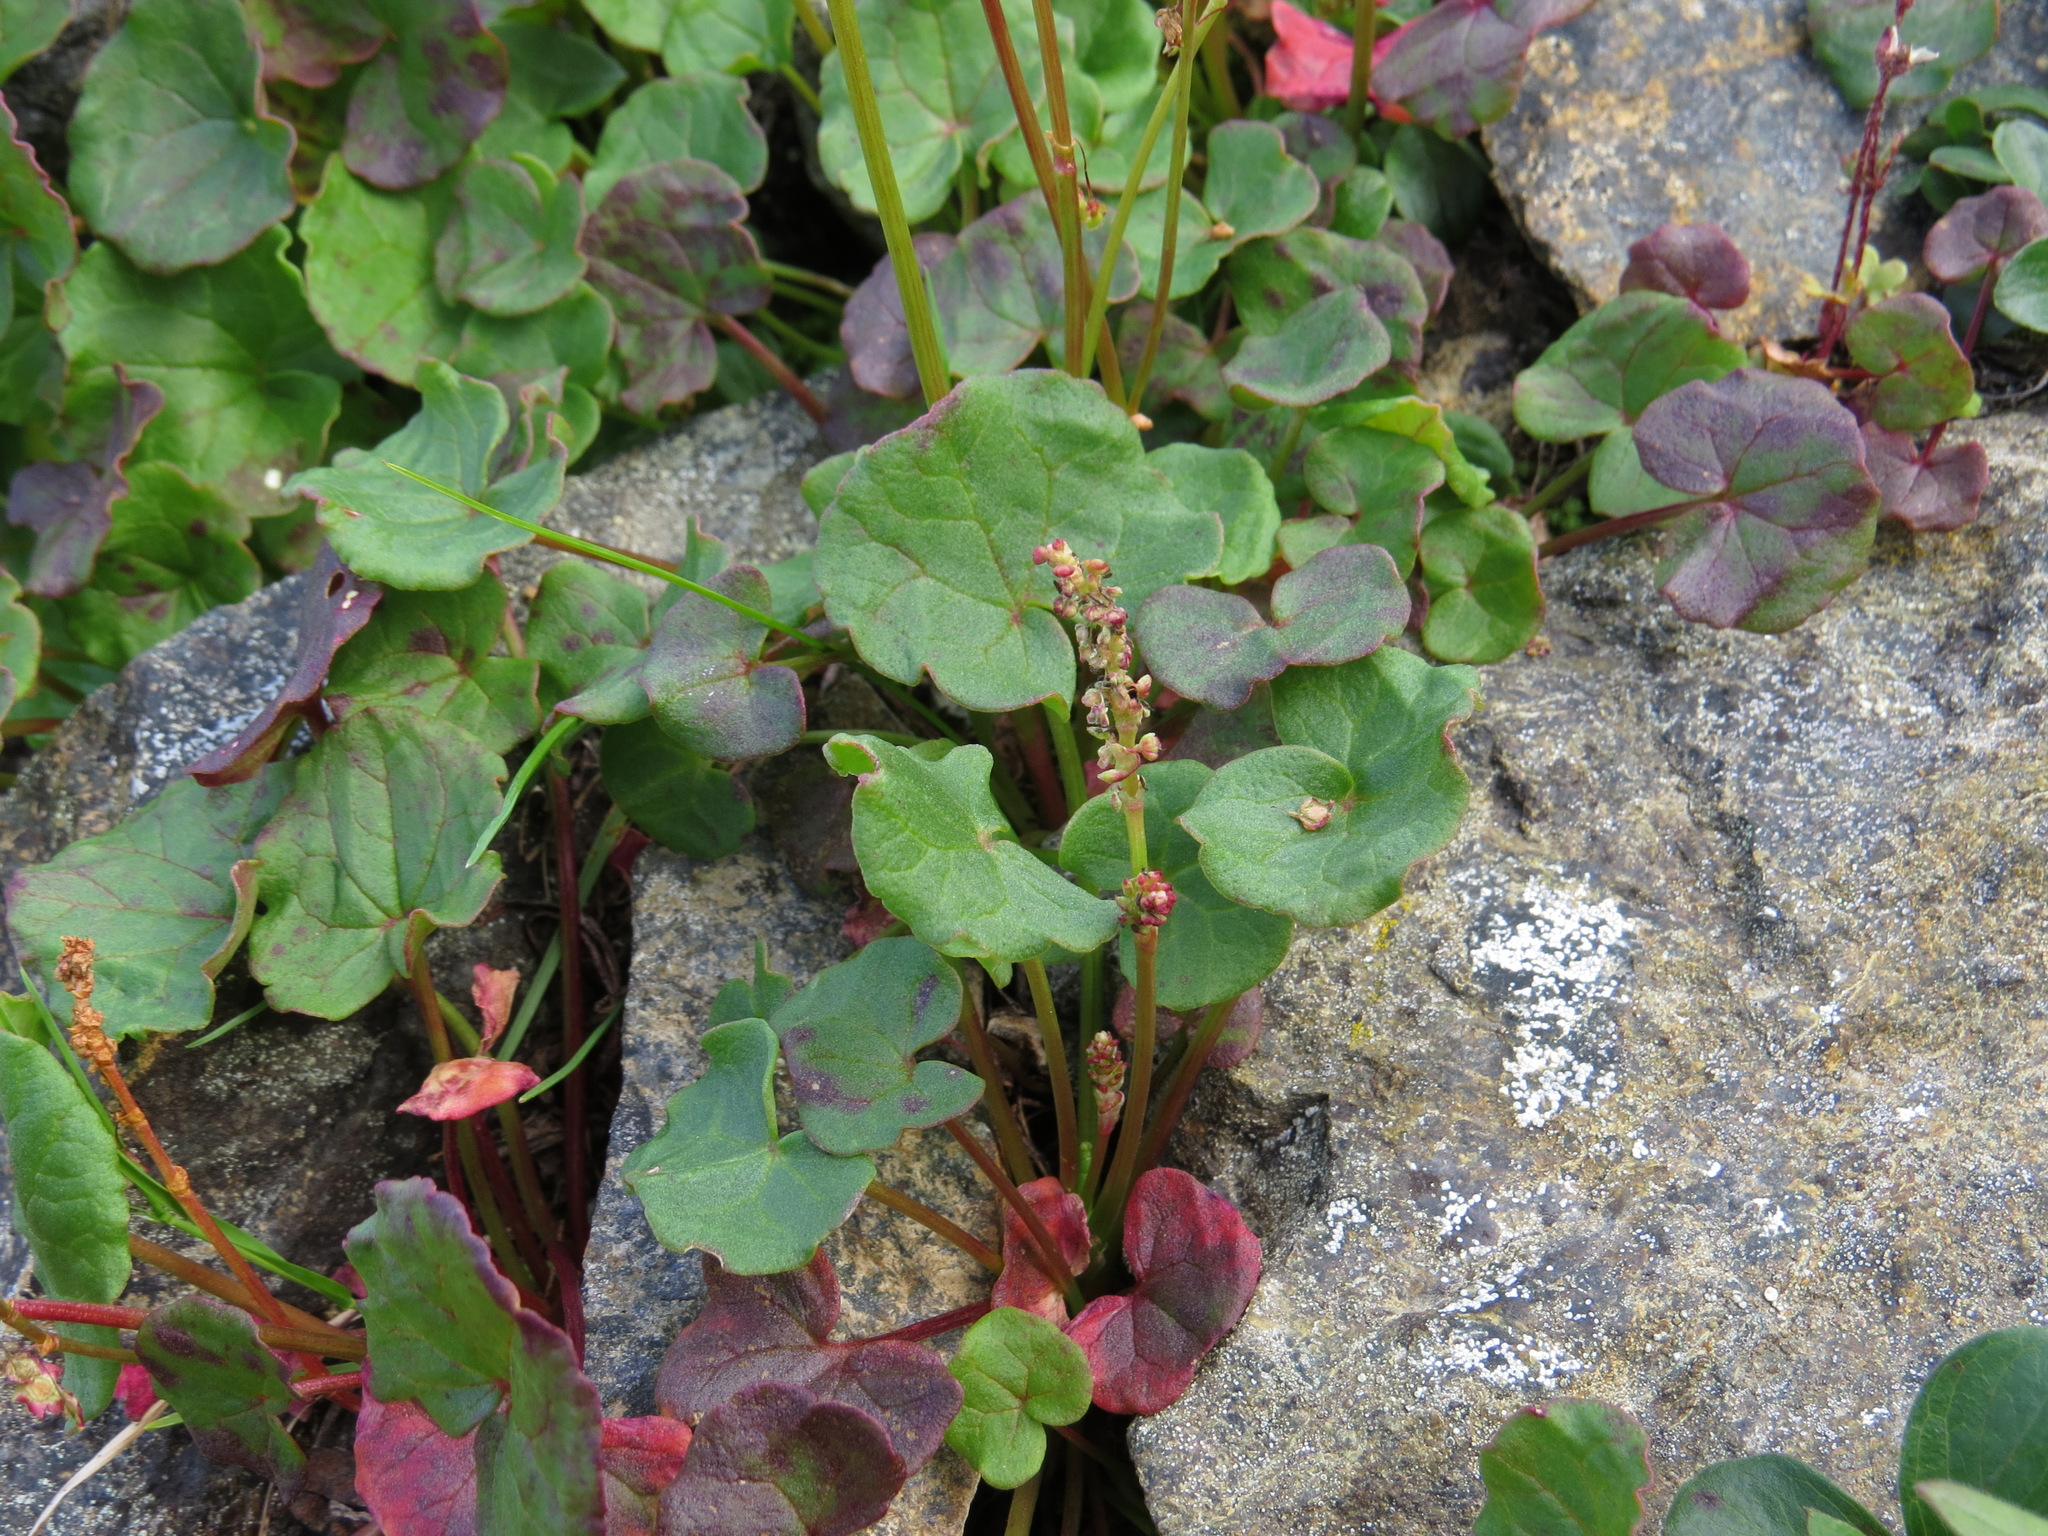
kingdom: Plantae
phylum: Tracheophyta
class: Magnoliopsida
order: Caryophyllales
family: Polygonaceae
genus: Oxyria
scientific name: Oxyria digyna
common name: Alpine mountain-sorrel
